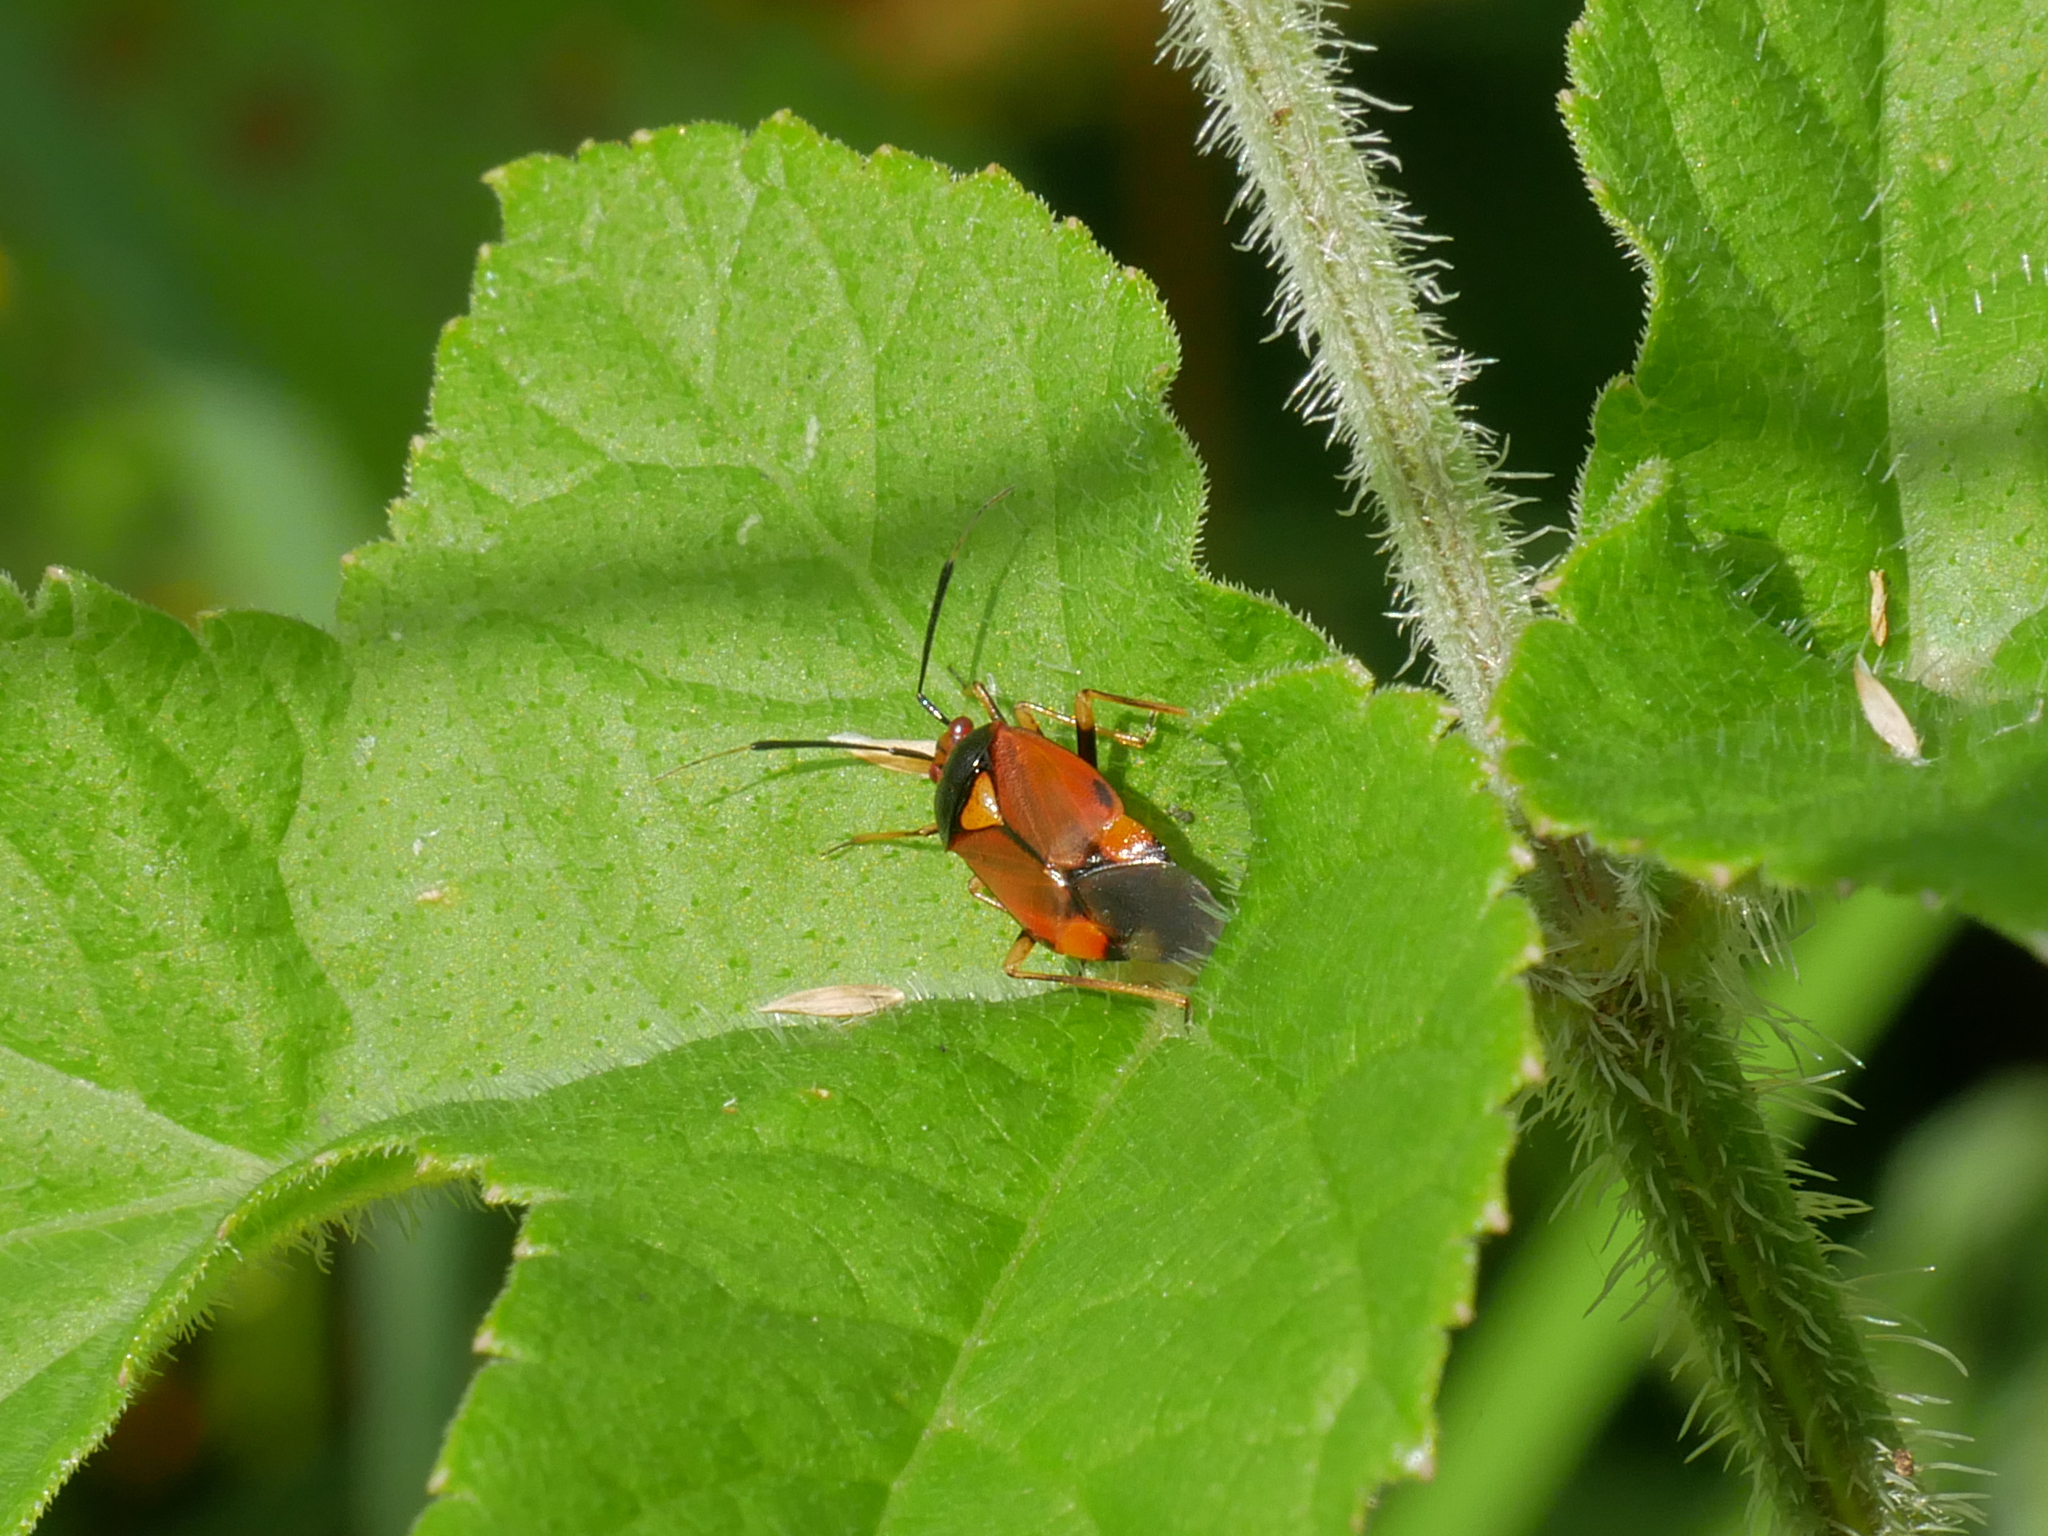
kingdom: Animalia
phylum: Arthropoda
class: Insecta
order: Hemiptera
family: Miridae
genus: Deraeocoris
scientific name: Deraeocoris ruber
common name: Plant bug
